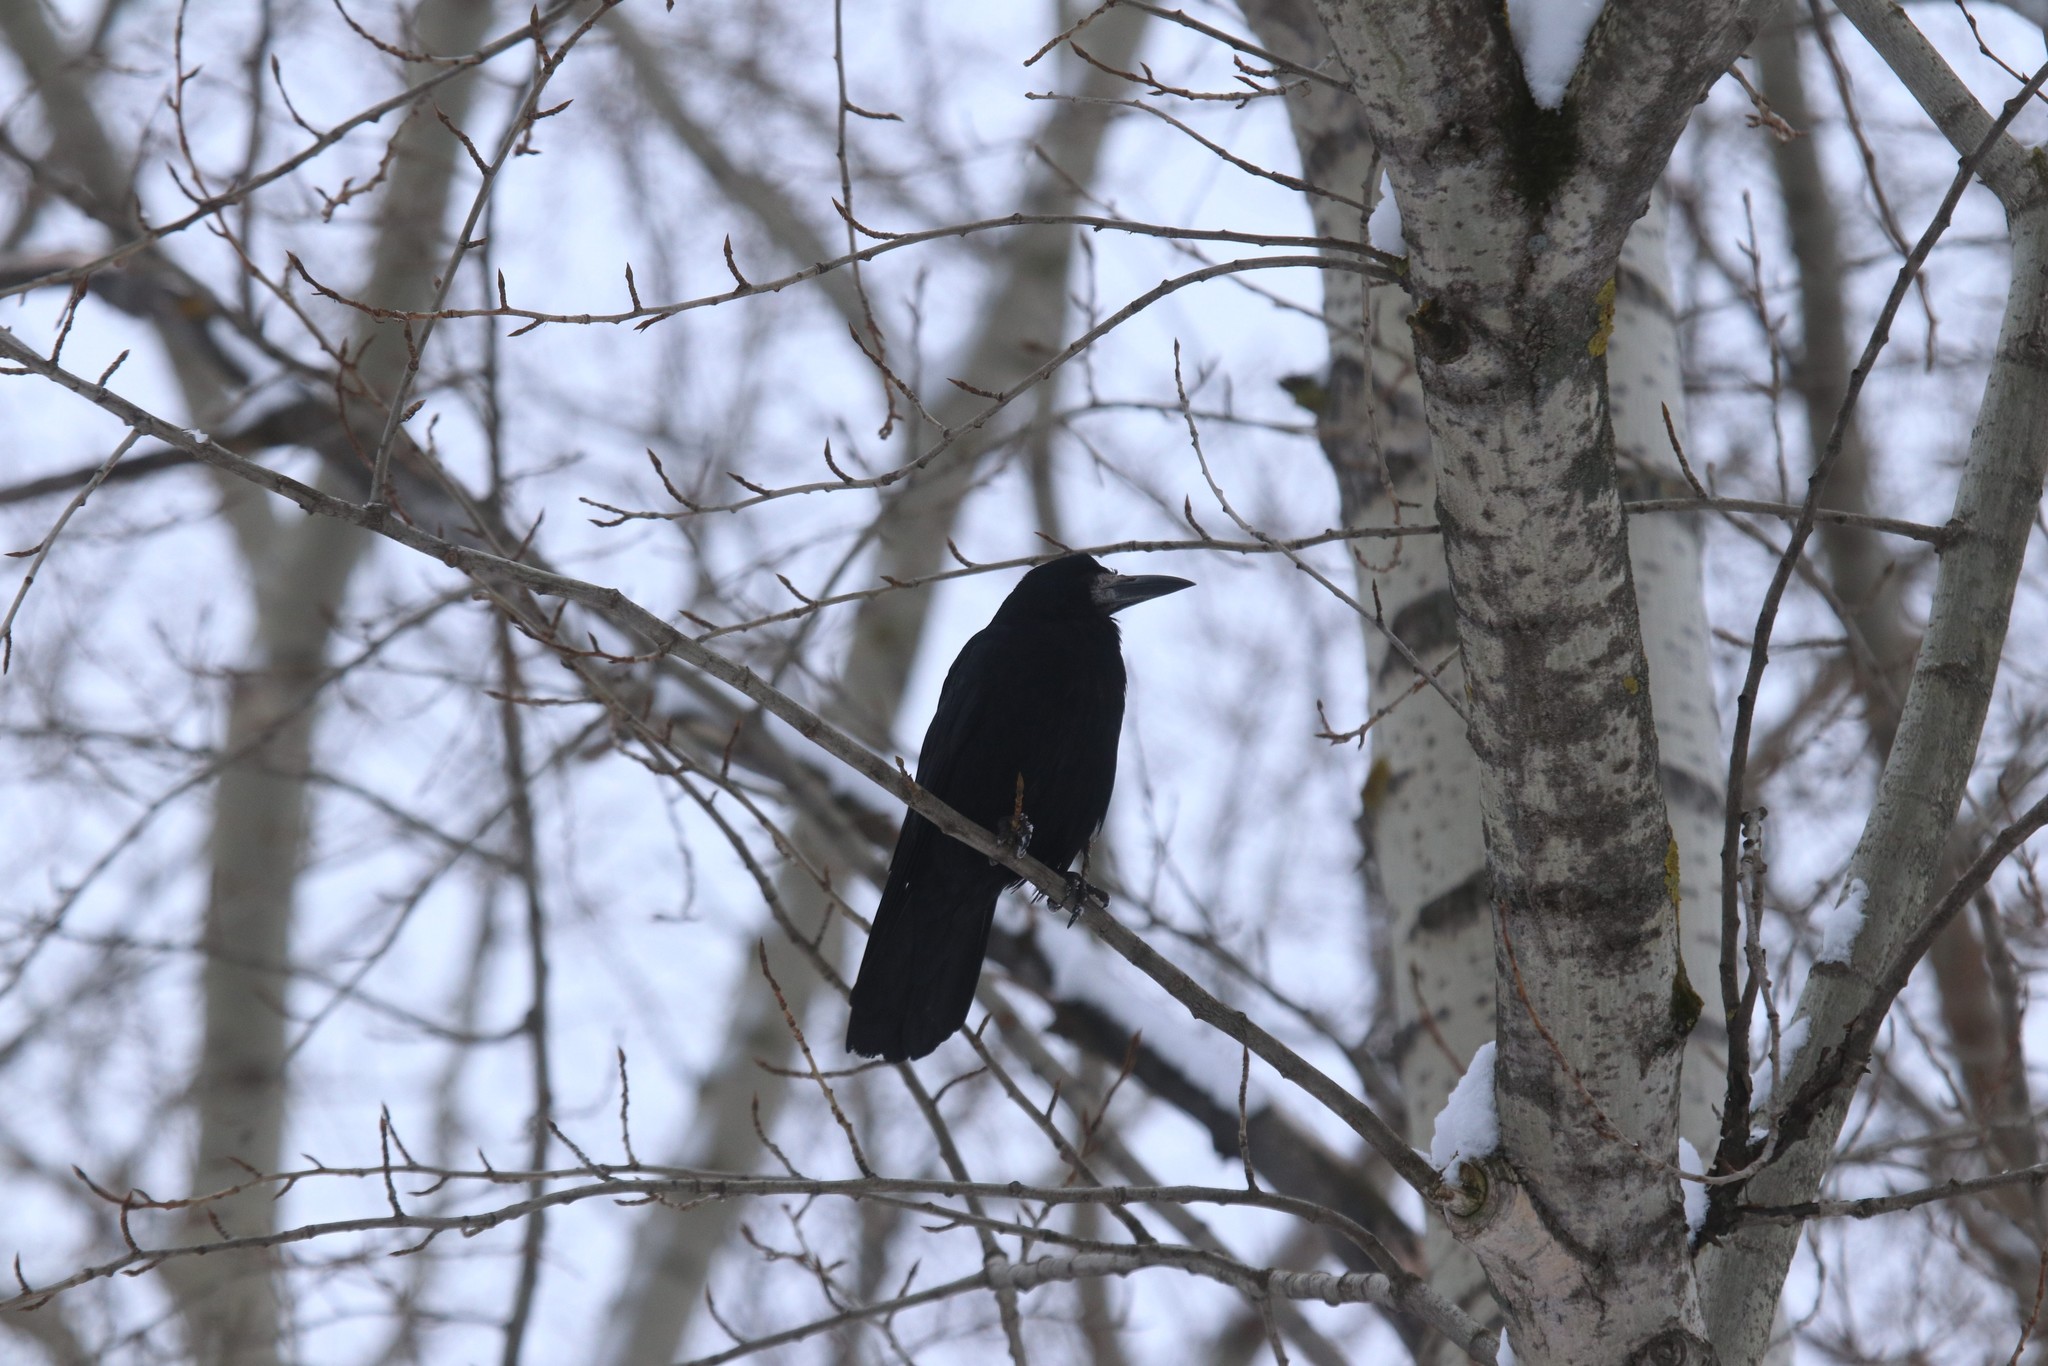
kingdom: Animalia
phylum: Chordata
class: Aves
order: Passeriformes
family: Corvidae
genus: Corvus
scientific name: Corvus frugilegus
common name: Rook
